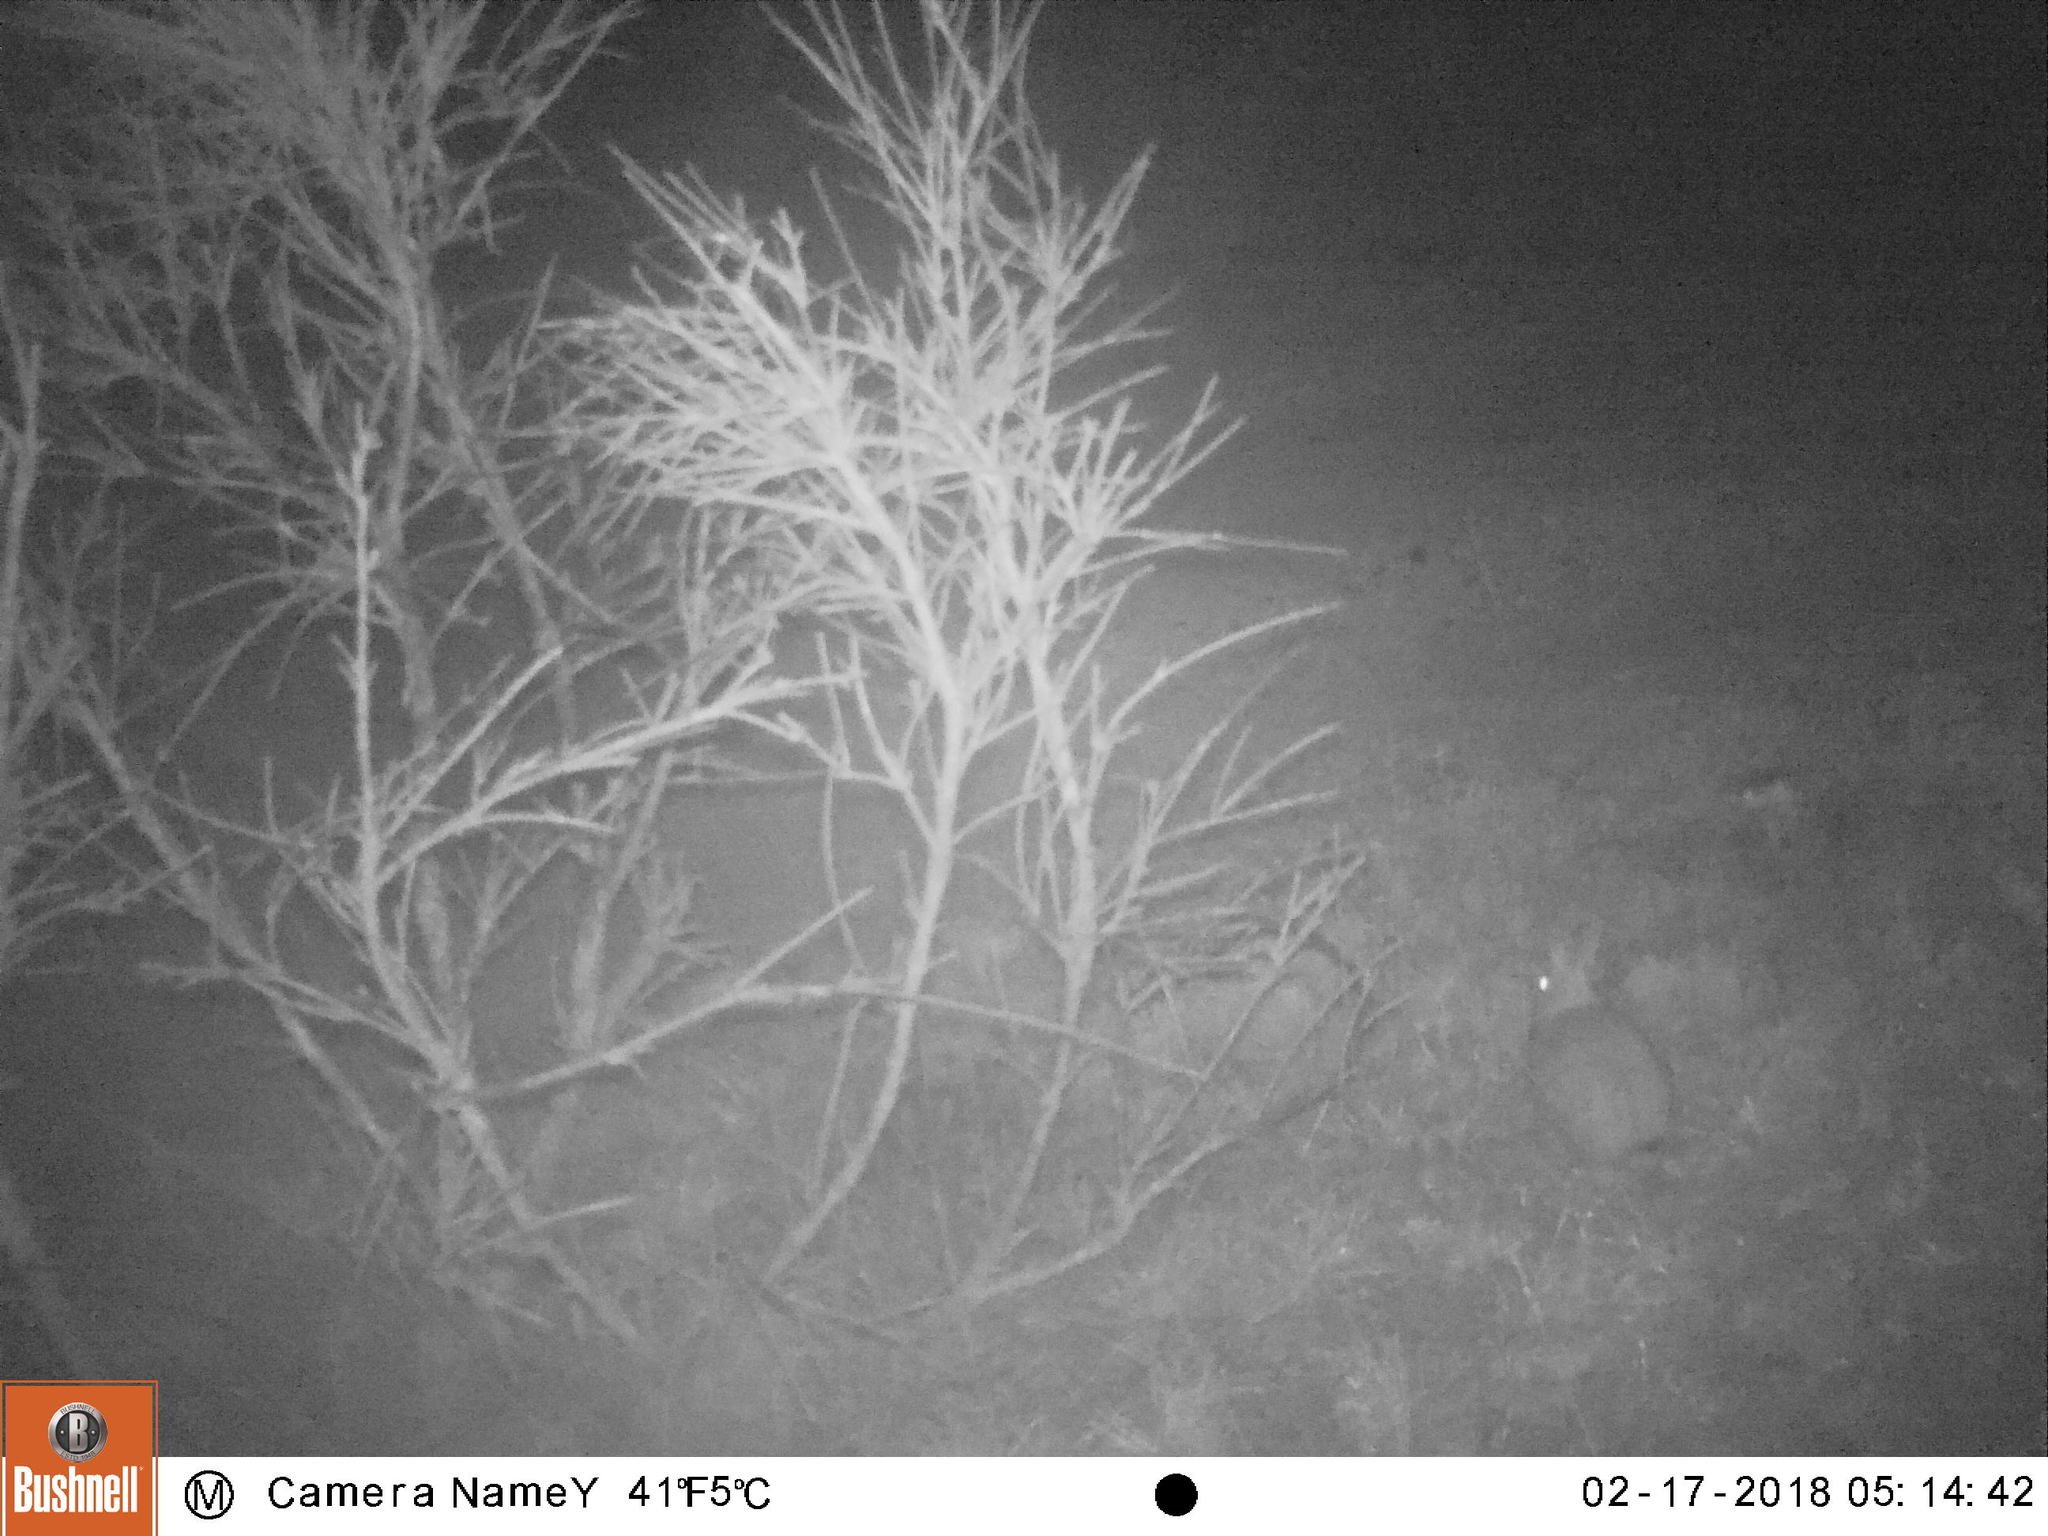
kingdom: Animalia
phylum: Chordata
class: Mammalia
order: Lagomorpha
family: Leporidae
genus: Oryctolagus
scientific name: Oryctolagus cuniculus
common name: European rabbit
